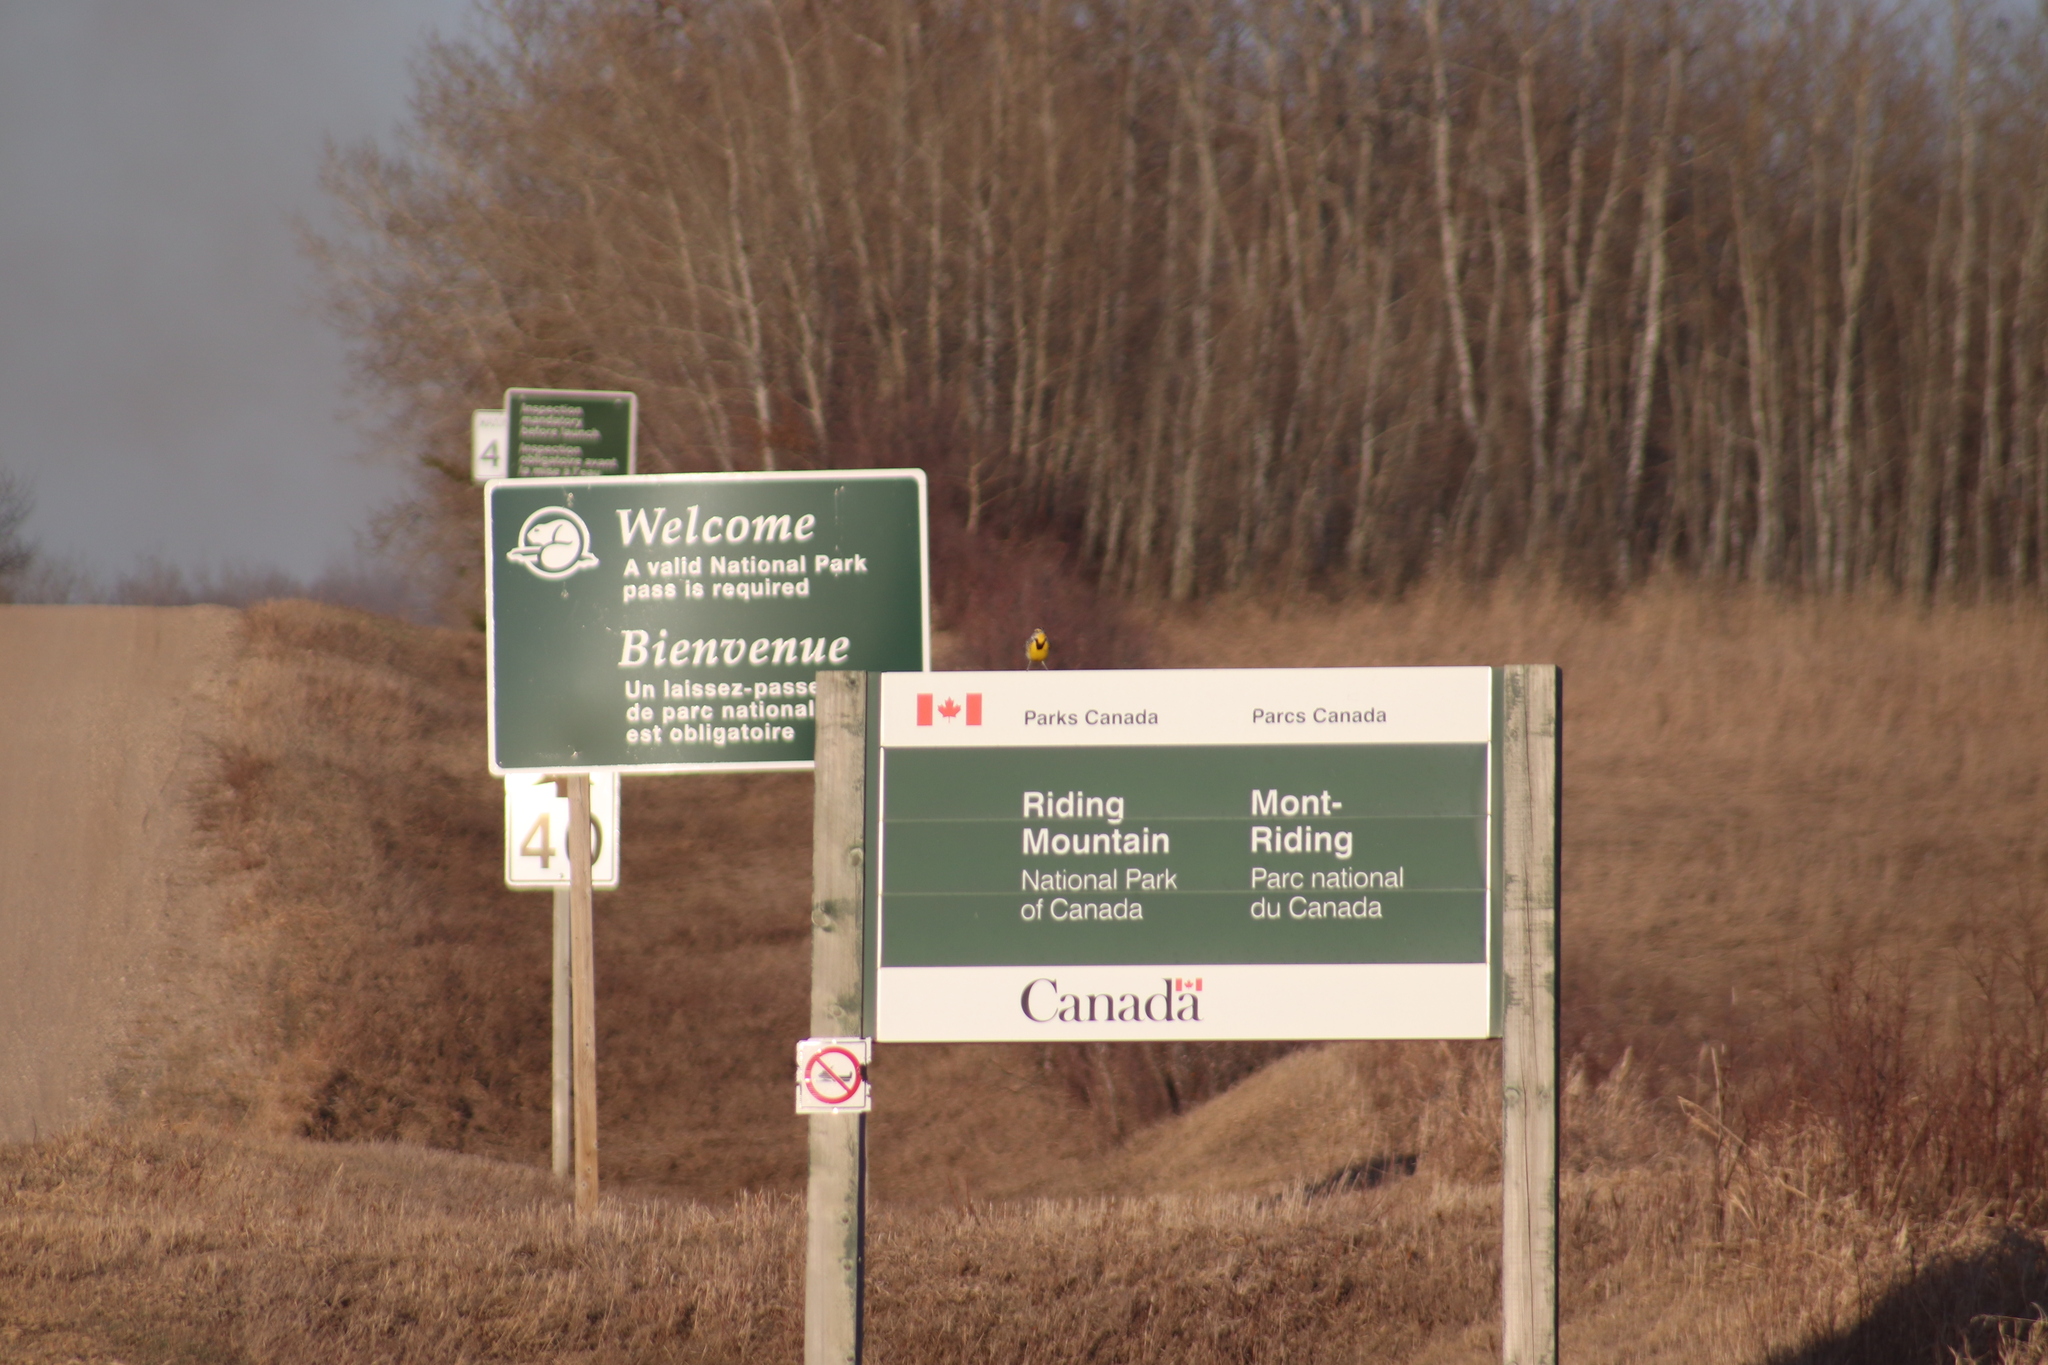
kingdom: Animalia
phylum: Chordata
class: Aves
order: Passeriformes
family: Icteridae
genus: Sturnella
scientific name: Sturnella neglecta
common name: Western meadowlark
